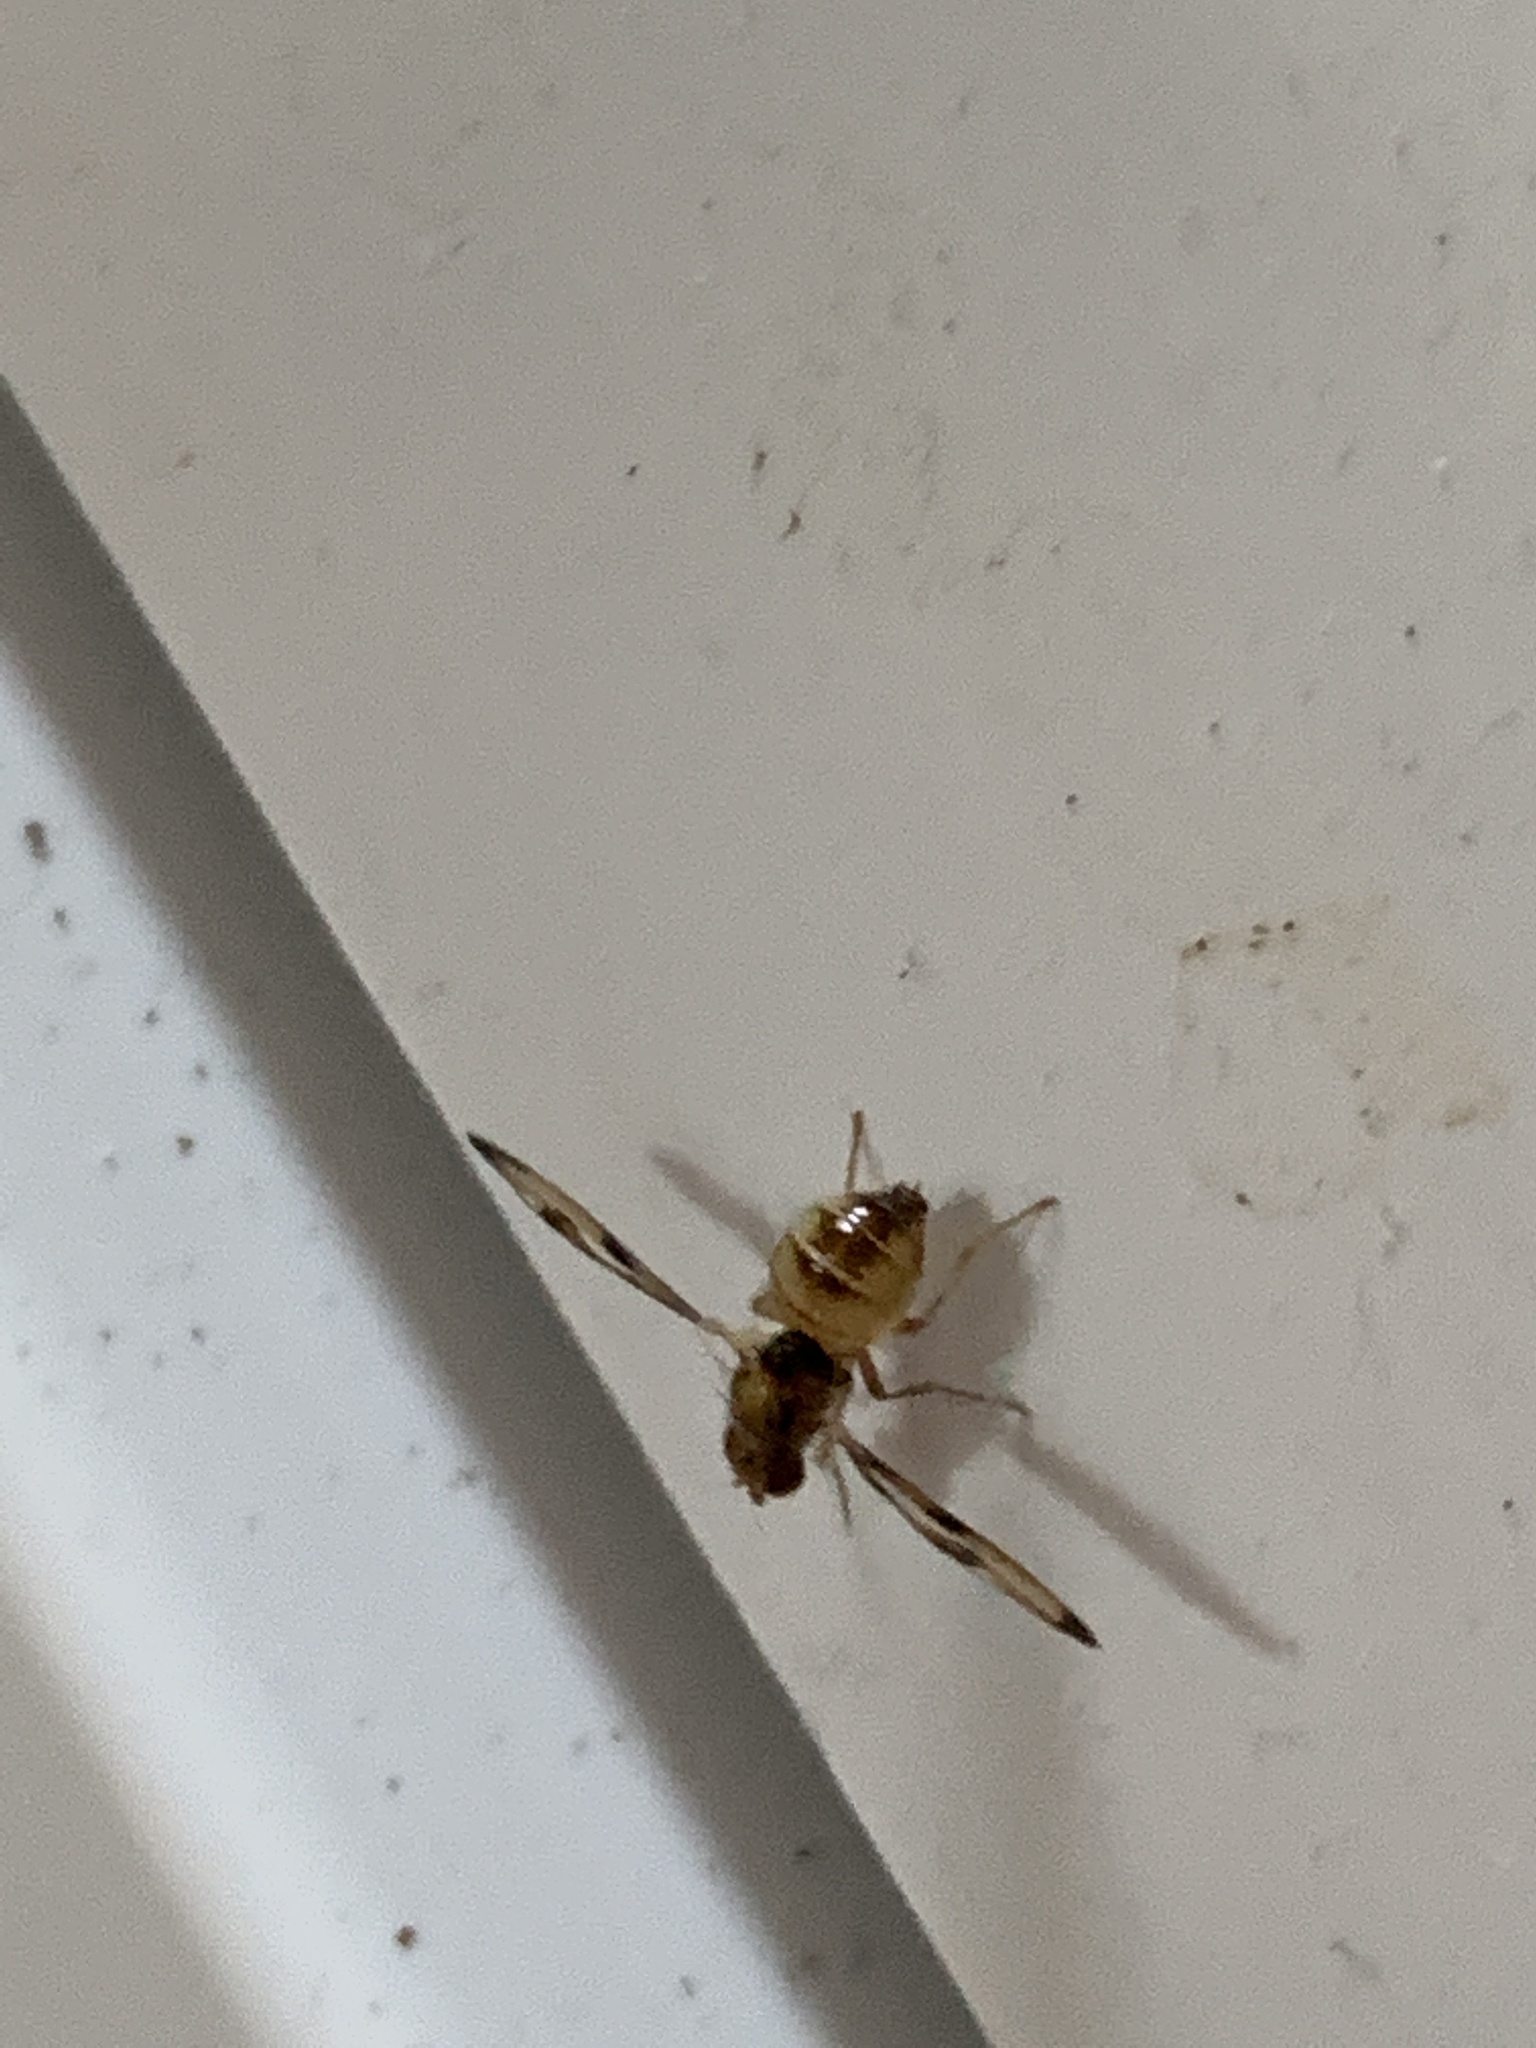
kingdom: Animalia
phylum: Arthropoda
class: Insecta
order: Diptera
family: Pallopteridae
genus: Toxonevra
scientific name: Toxonevra muliebris
